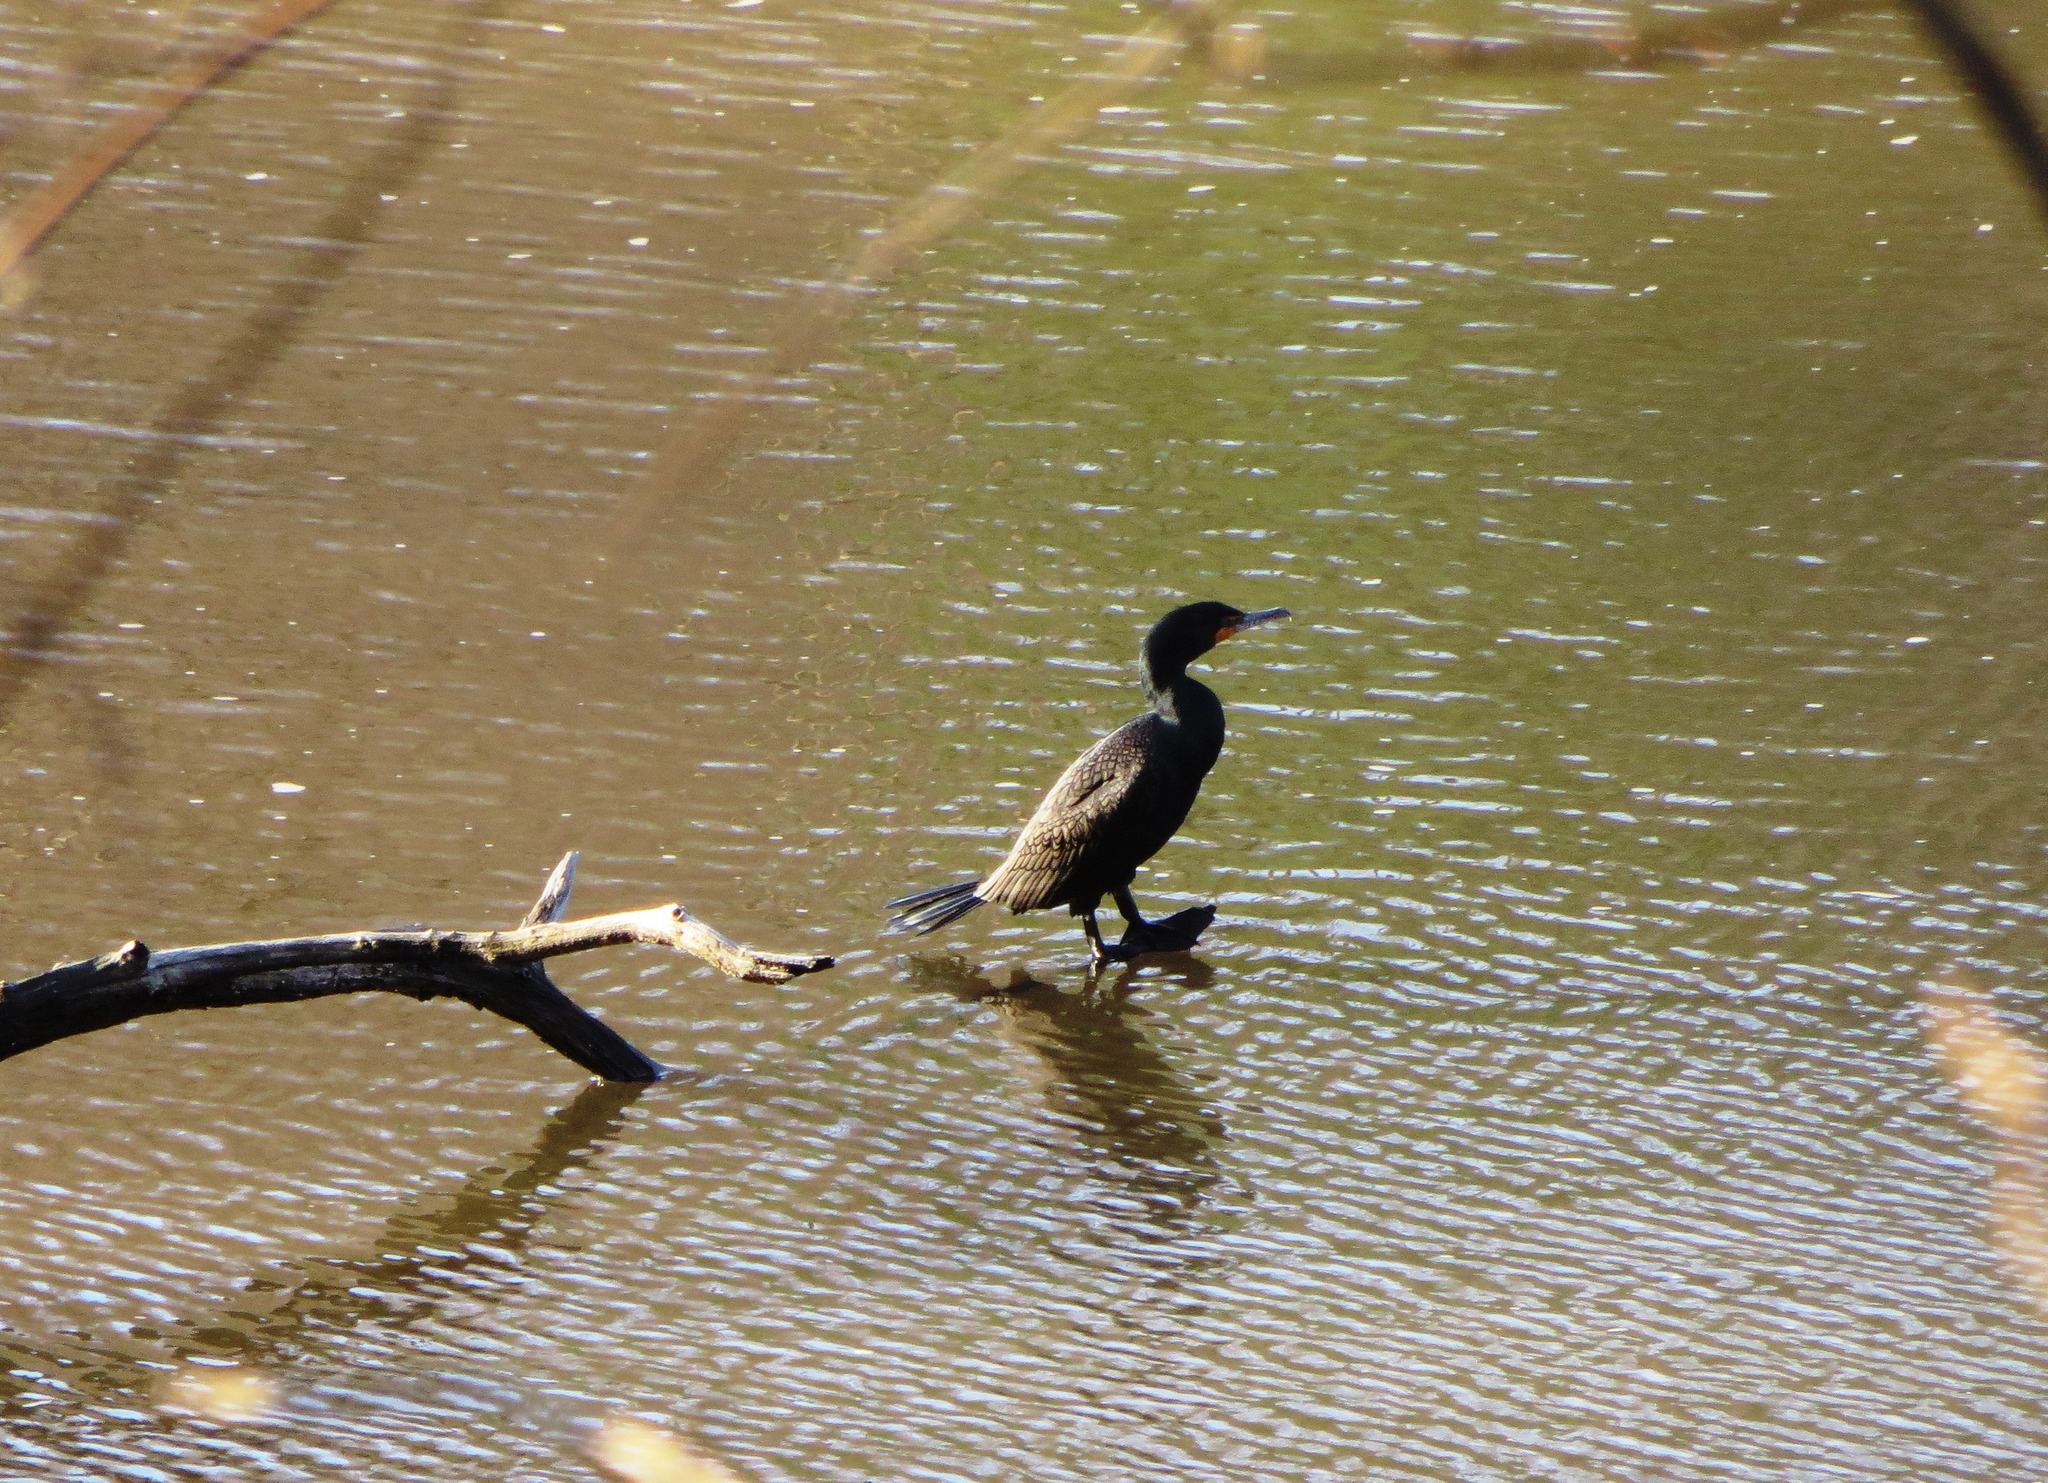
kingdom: Animalia
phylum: Chordata
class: Aves
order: Suliformes
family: Phalacrocoracidae
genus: Phalacrocorax
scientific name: Phalacrocorax auritus
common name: Double-crested cormorant
